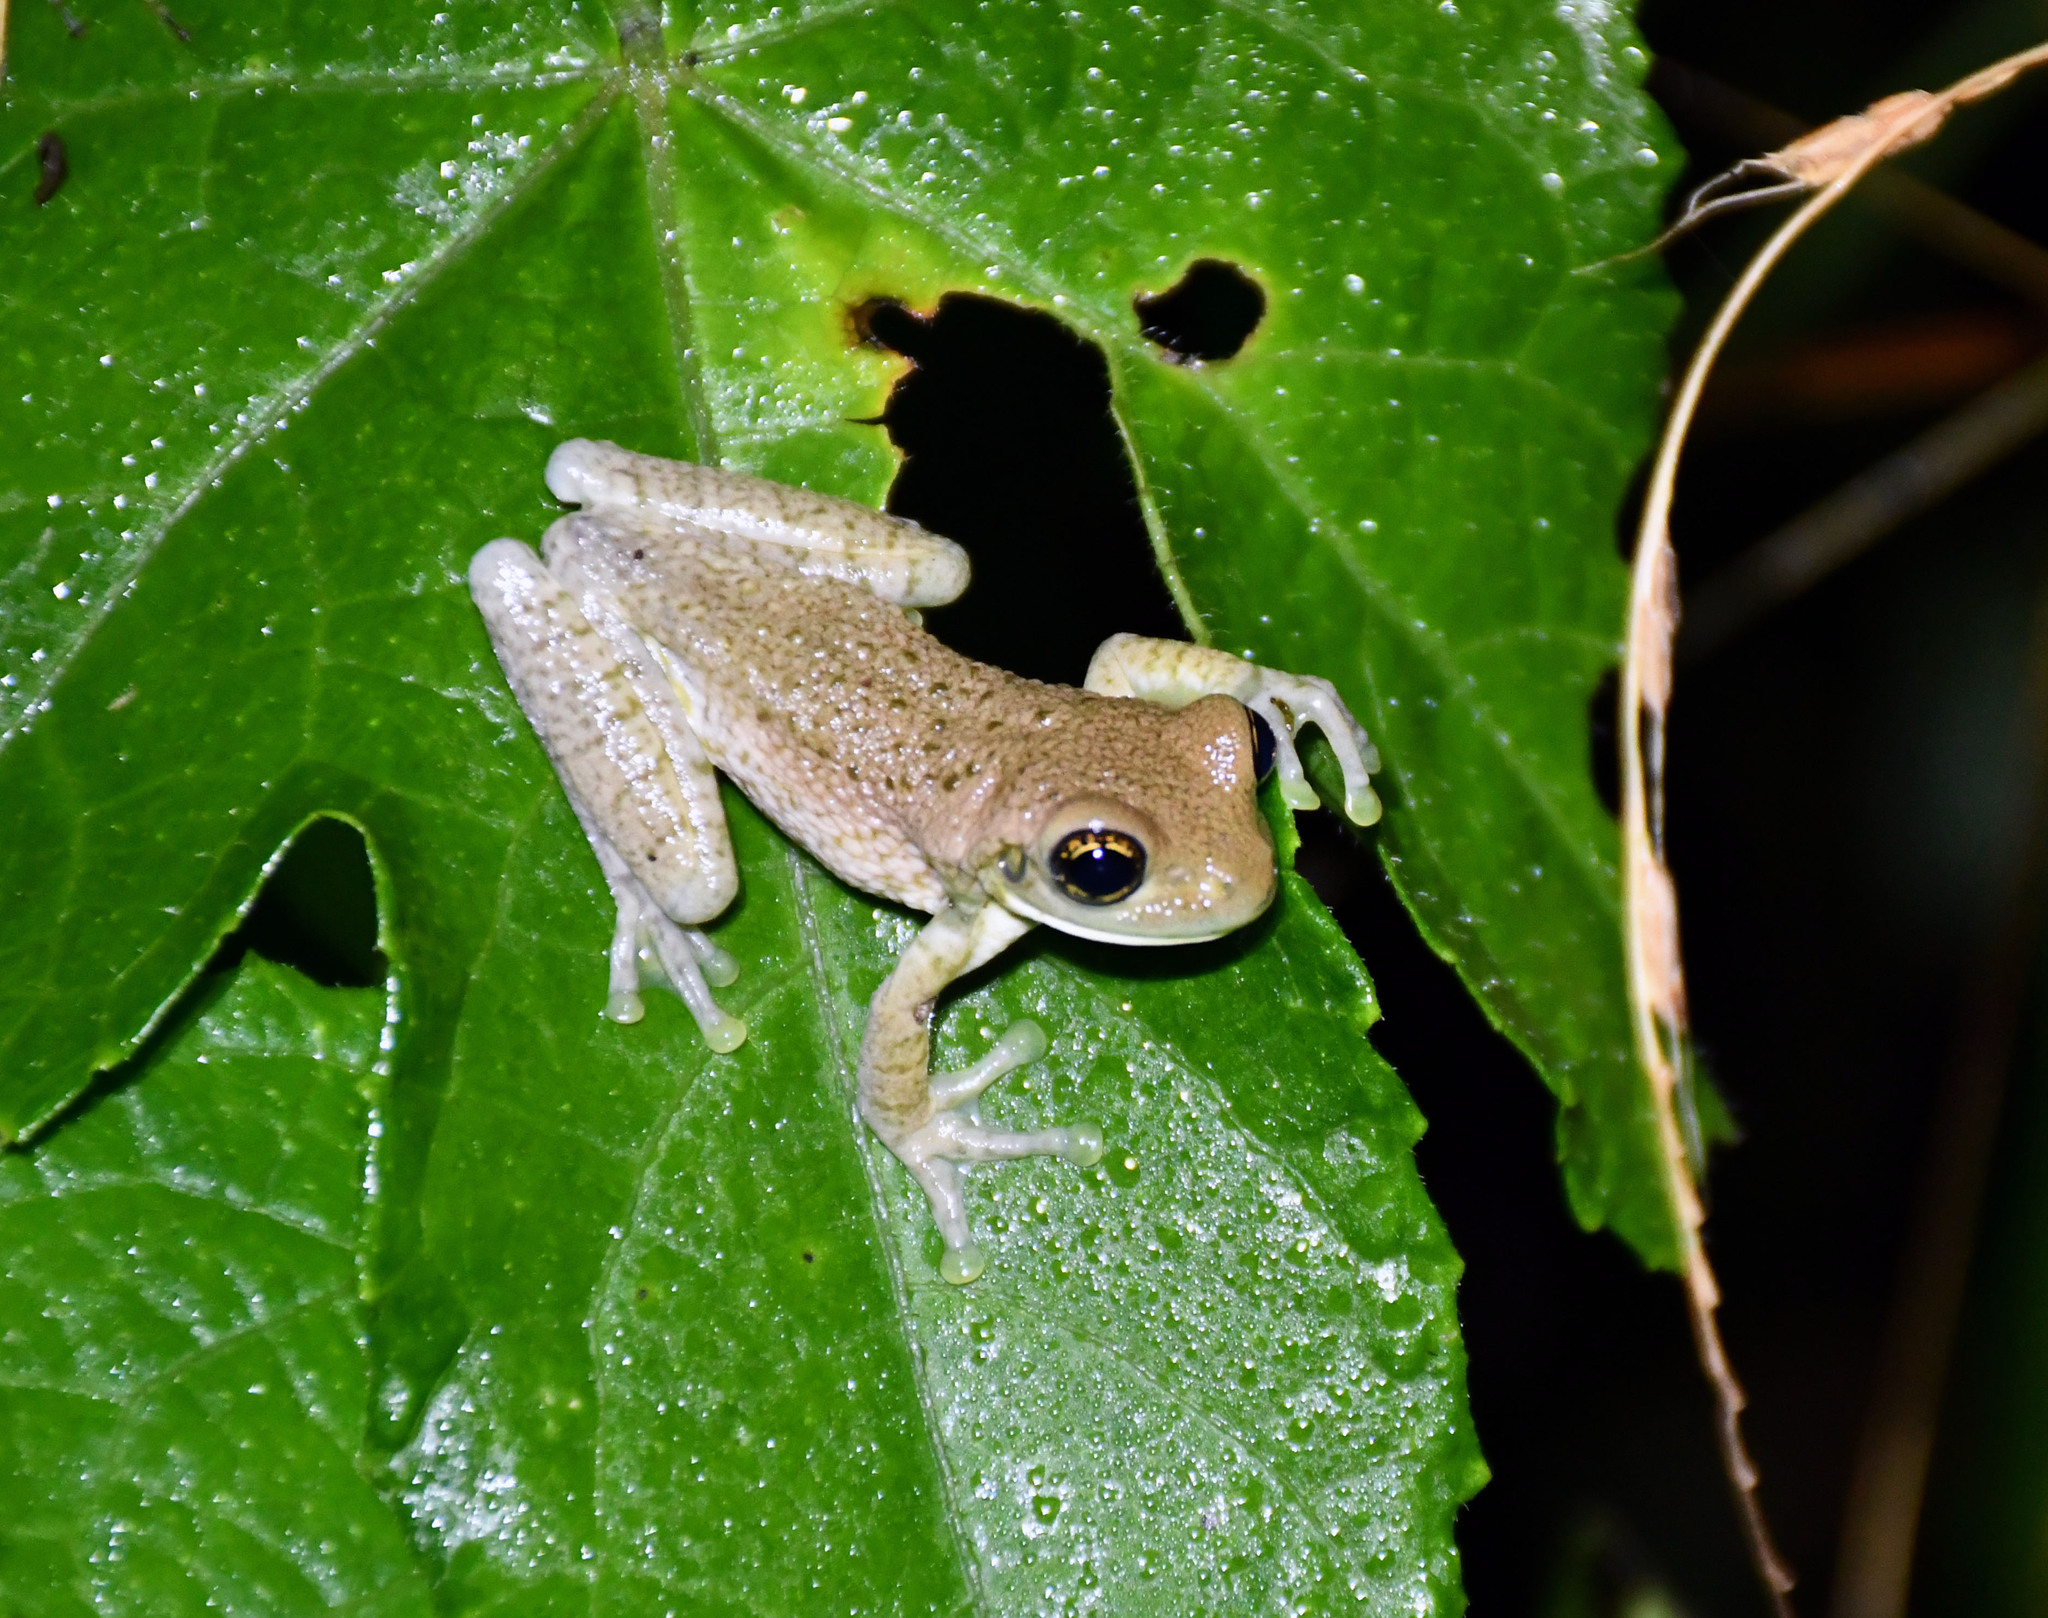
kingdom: Animalia
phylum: Chordata
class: Amphibia
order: Anura
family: Hylidae
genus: Trachycephalus
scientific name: Trachycephalus typhonius
